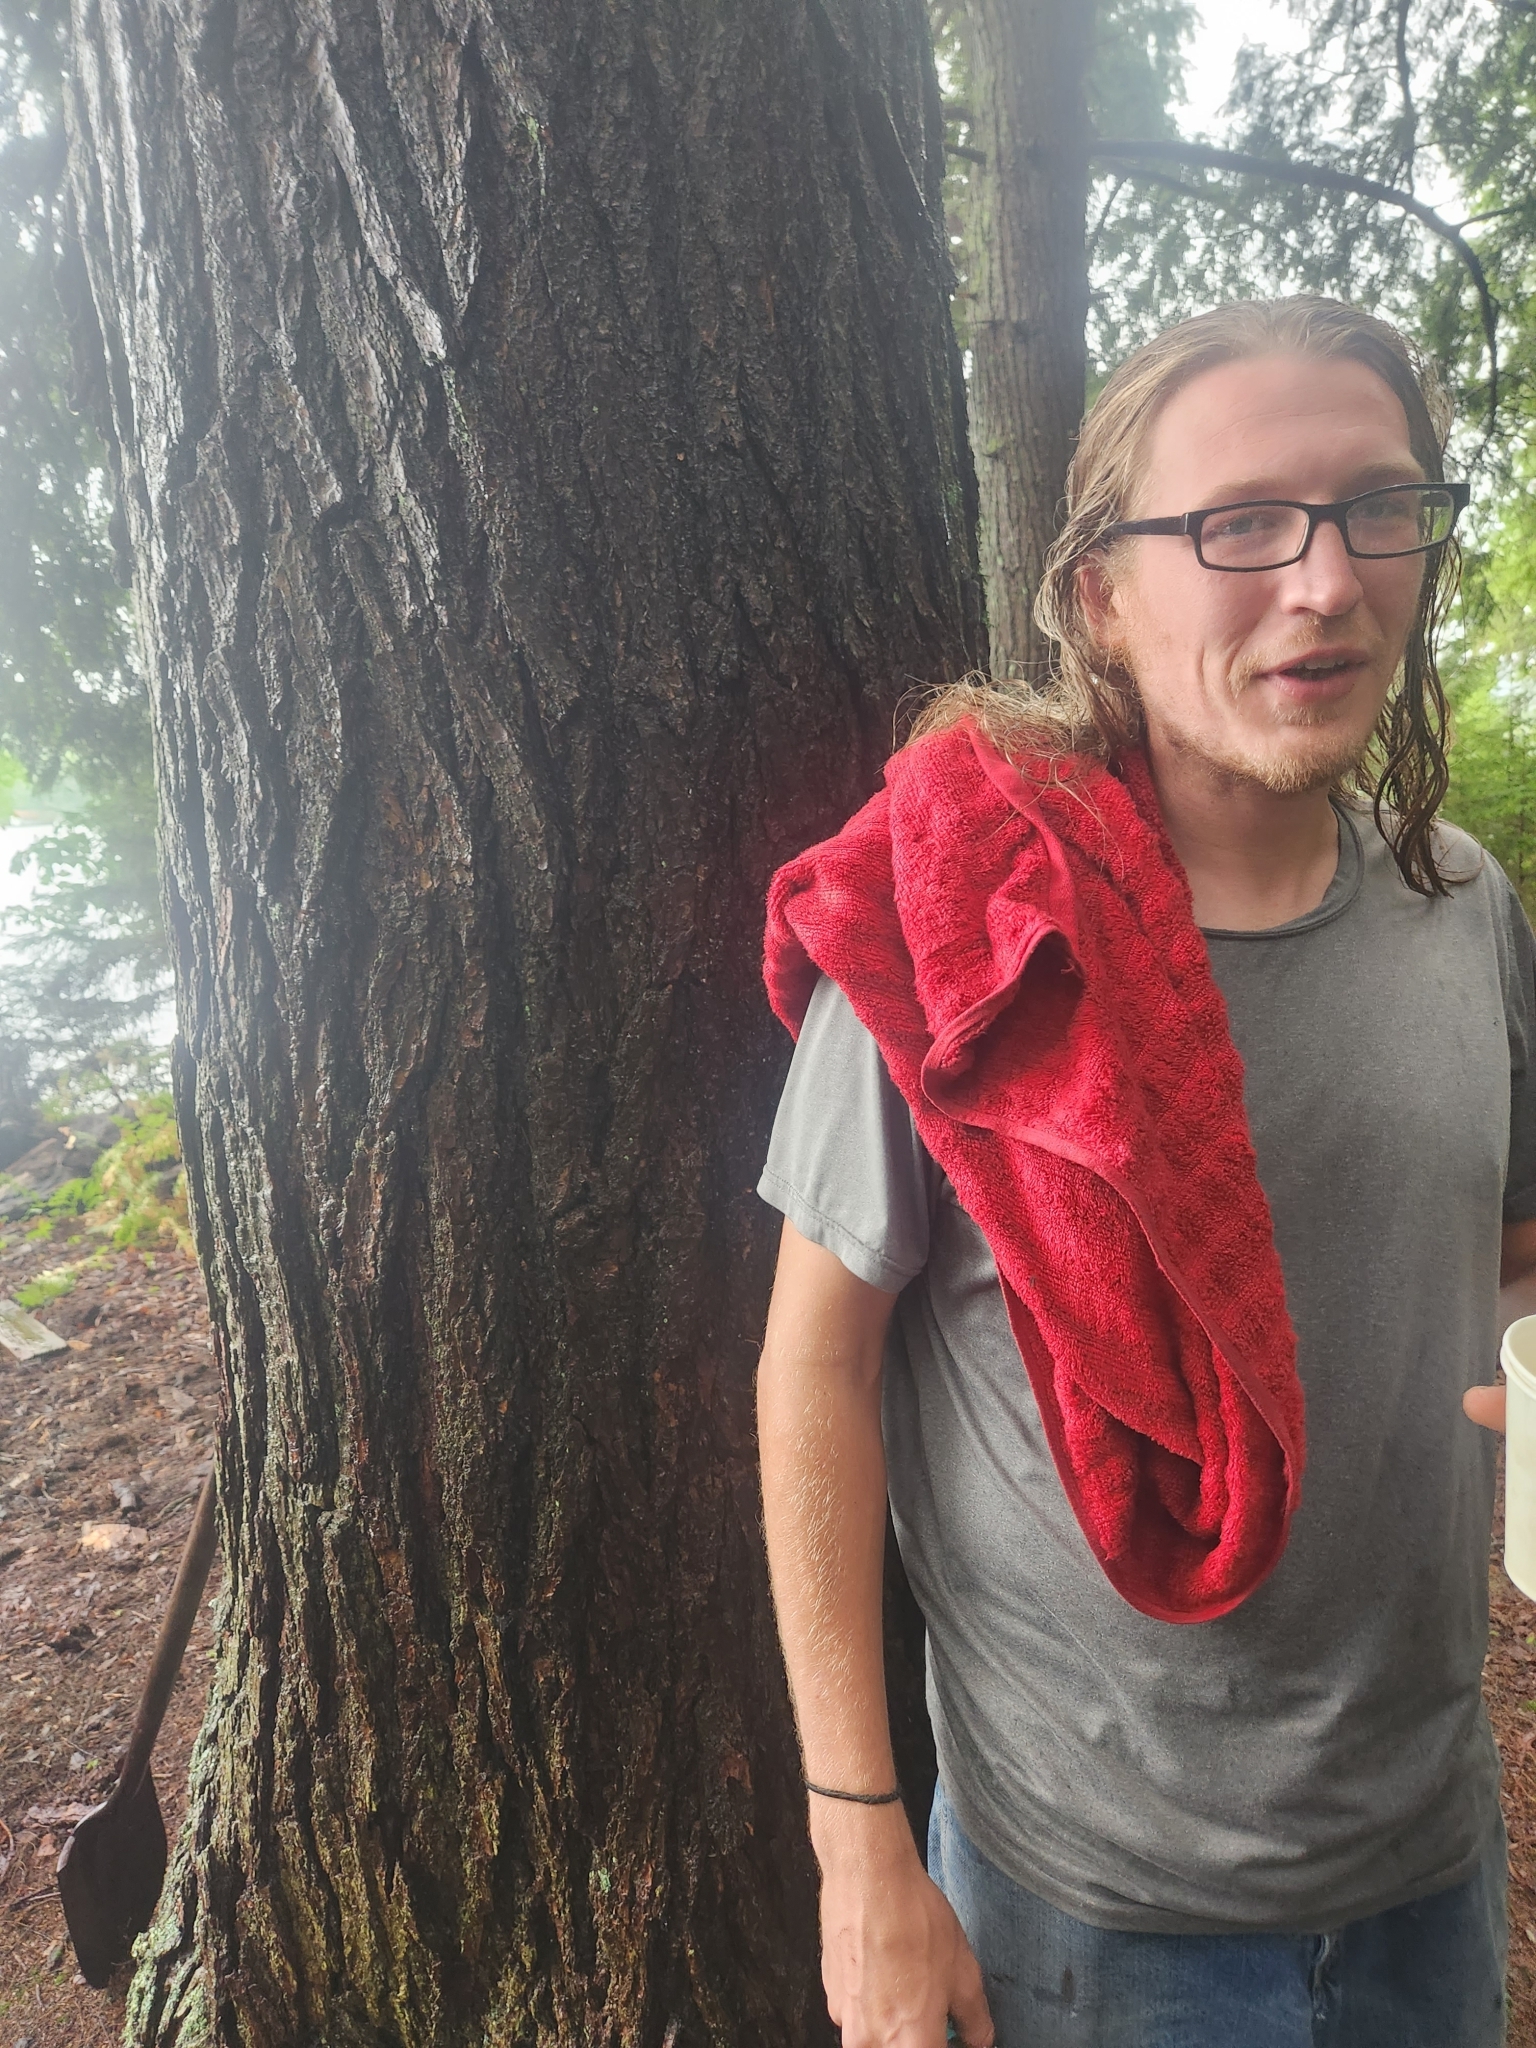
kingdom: Plantae
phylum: Tracheophyta
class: Pinopsida
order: Pinales
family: Pinaceae
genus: Tsuga
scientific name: Tsuga canadensis
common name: Eastern hemlock
